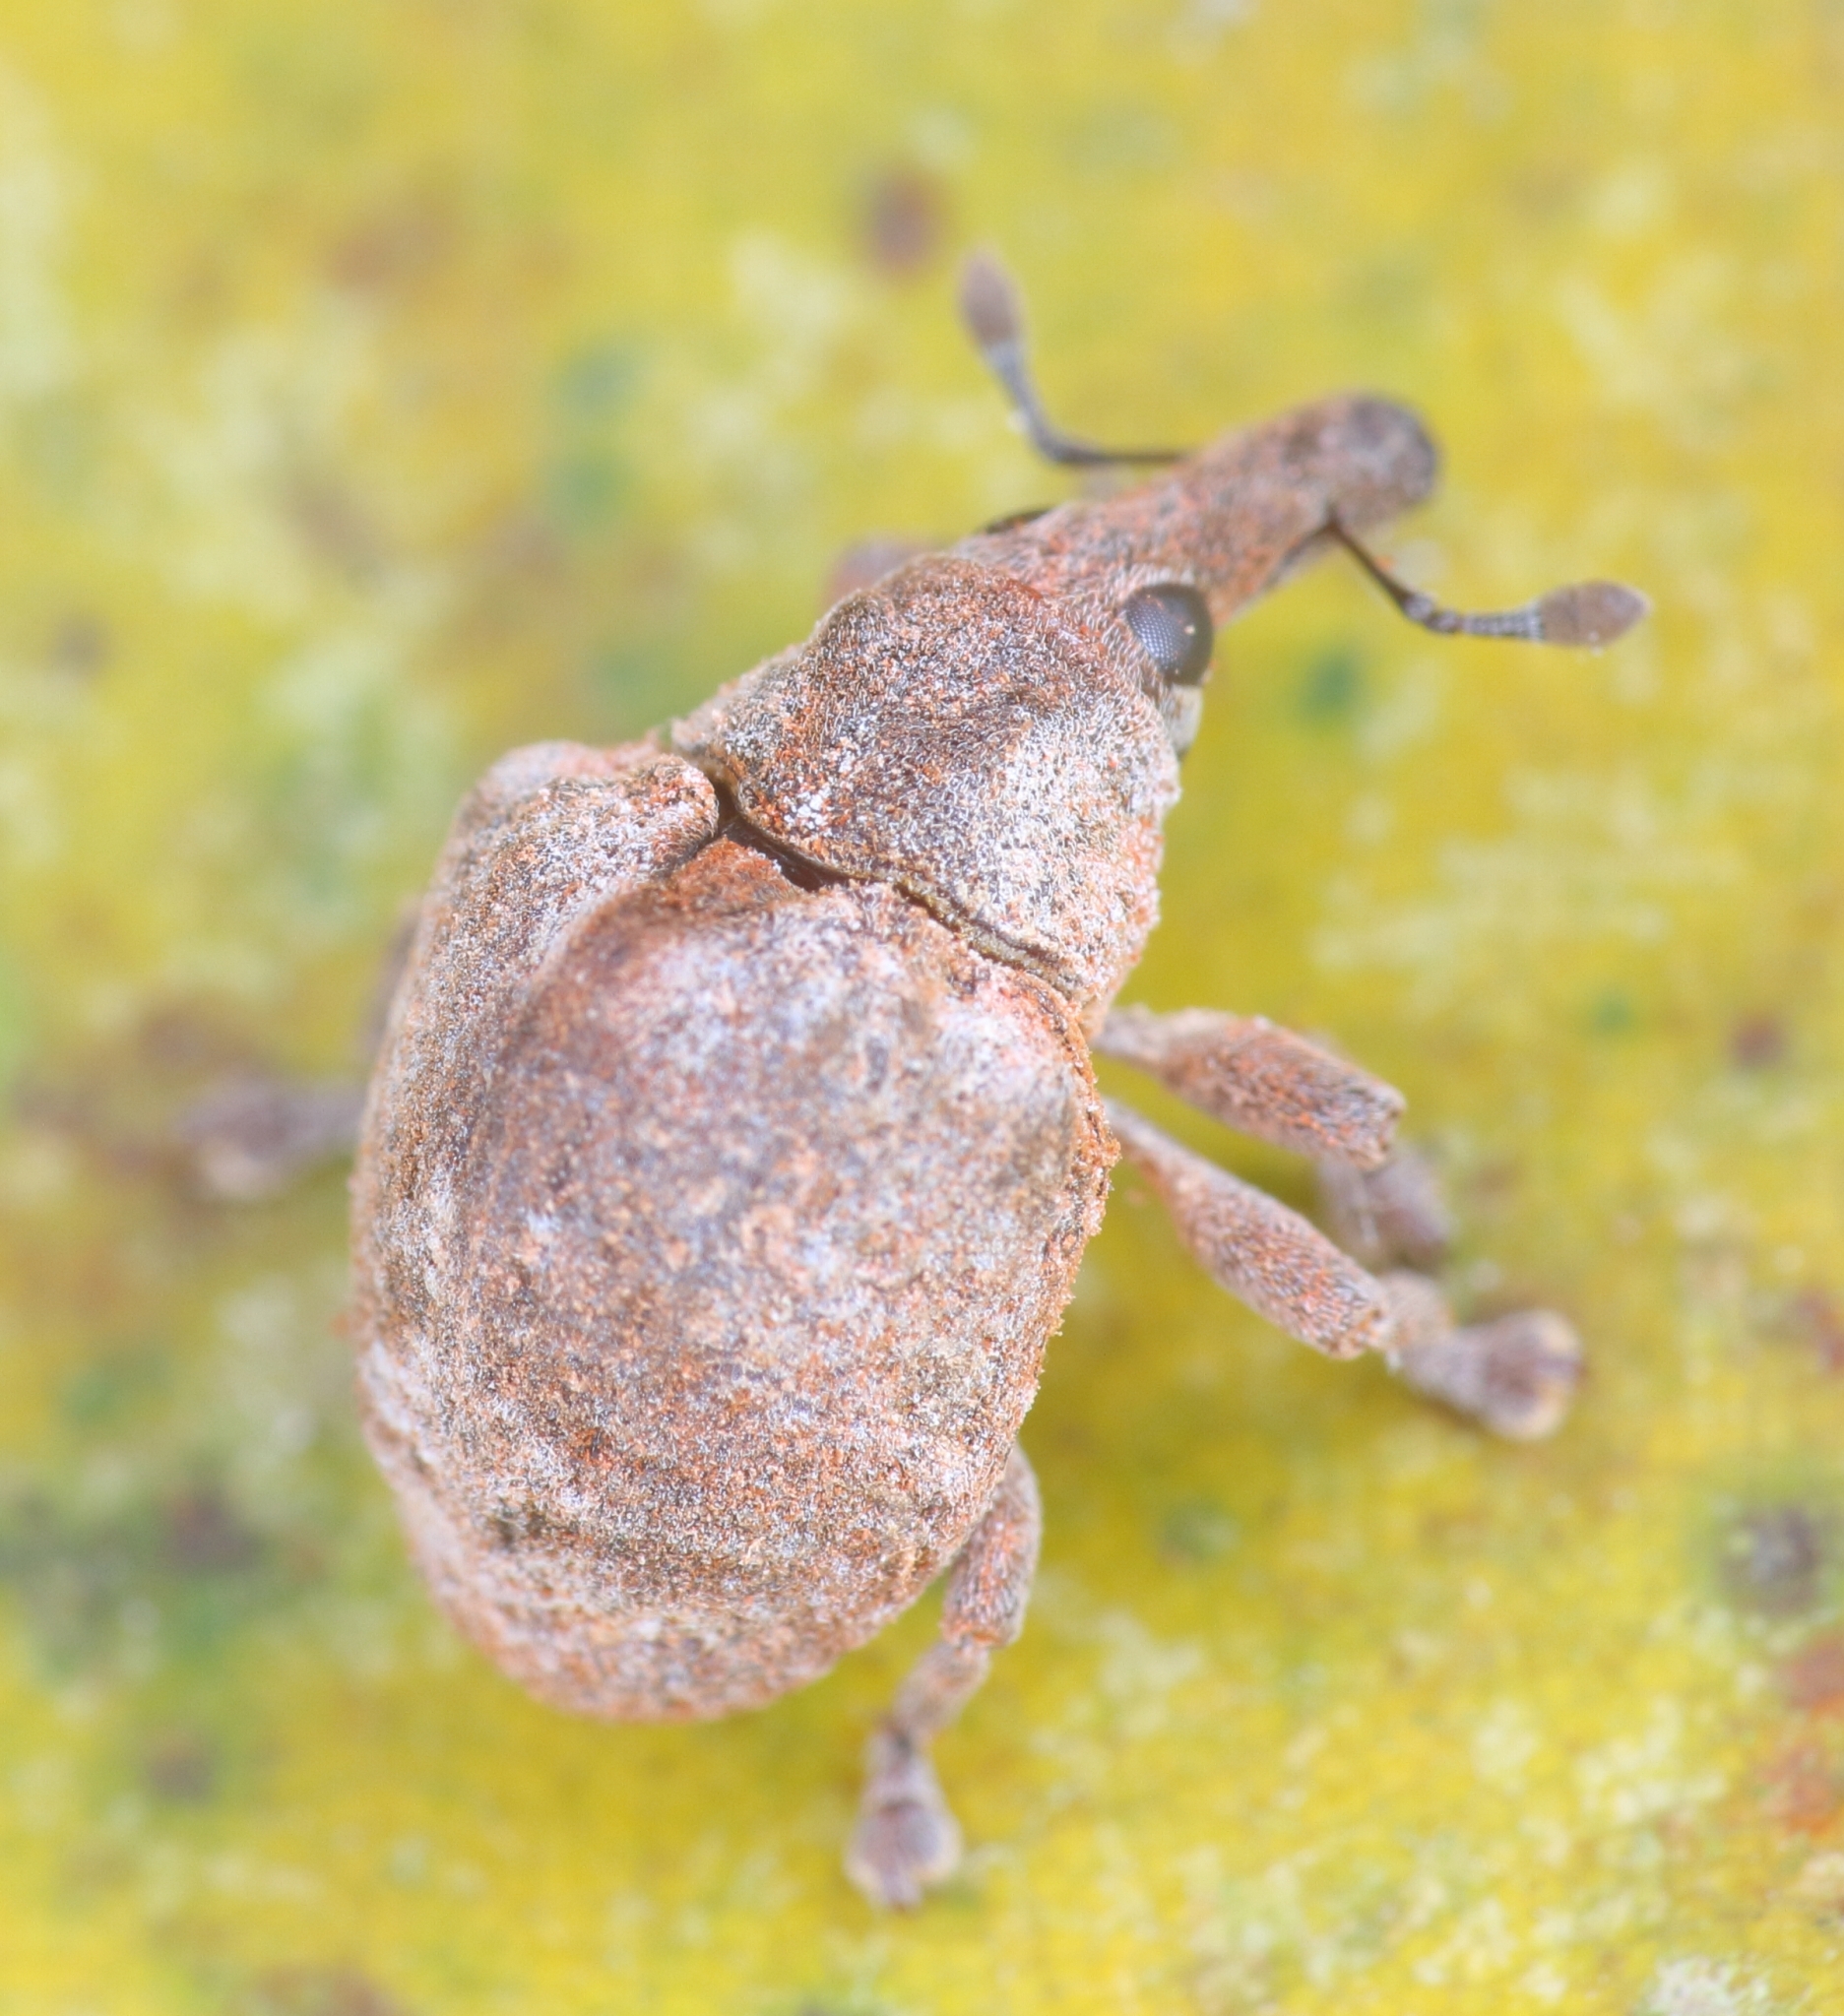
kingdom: Animalia
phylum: Arthropoda
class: Insecta
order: Coleoptera
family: Curculionidae
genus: Omophorus
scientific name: Omophorus stomachosus
